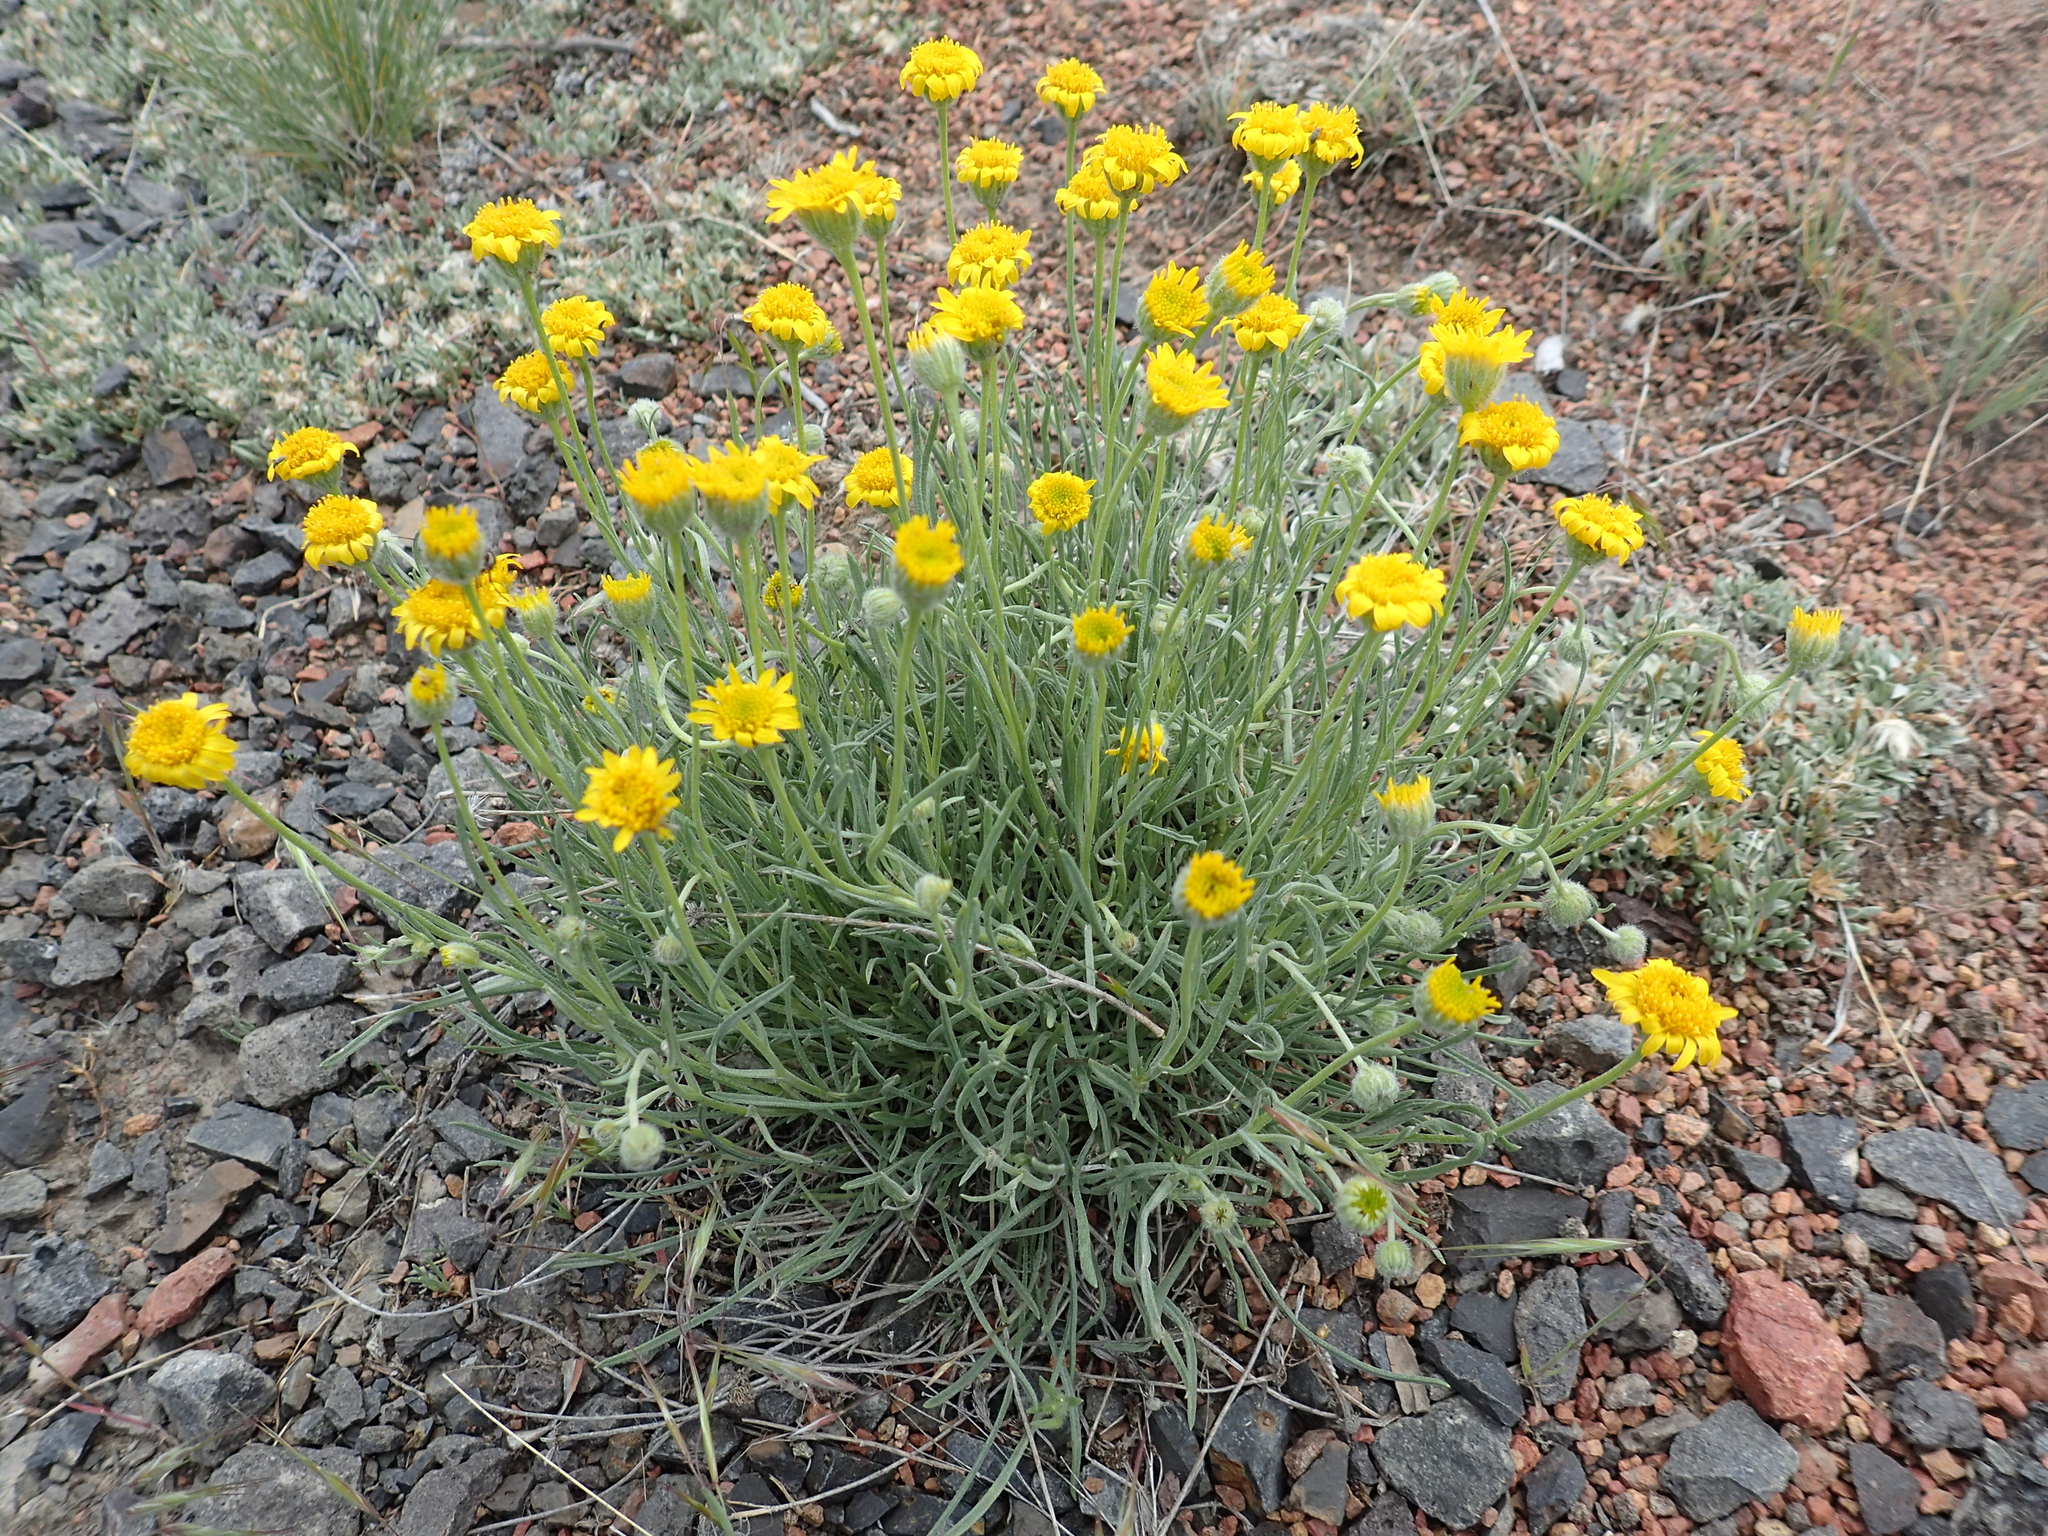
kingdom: Plantae
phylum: Tracheophyta
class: Magnoliopsida
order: Asterales
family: Asteraceae
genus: Erigeron
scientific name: Erigeron linearis
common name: Desert yellow fleabane
